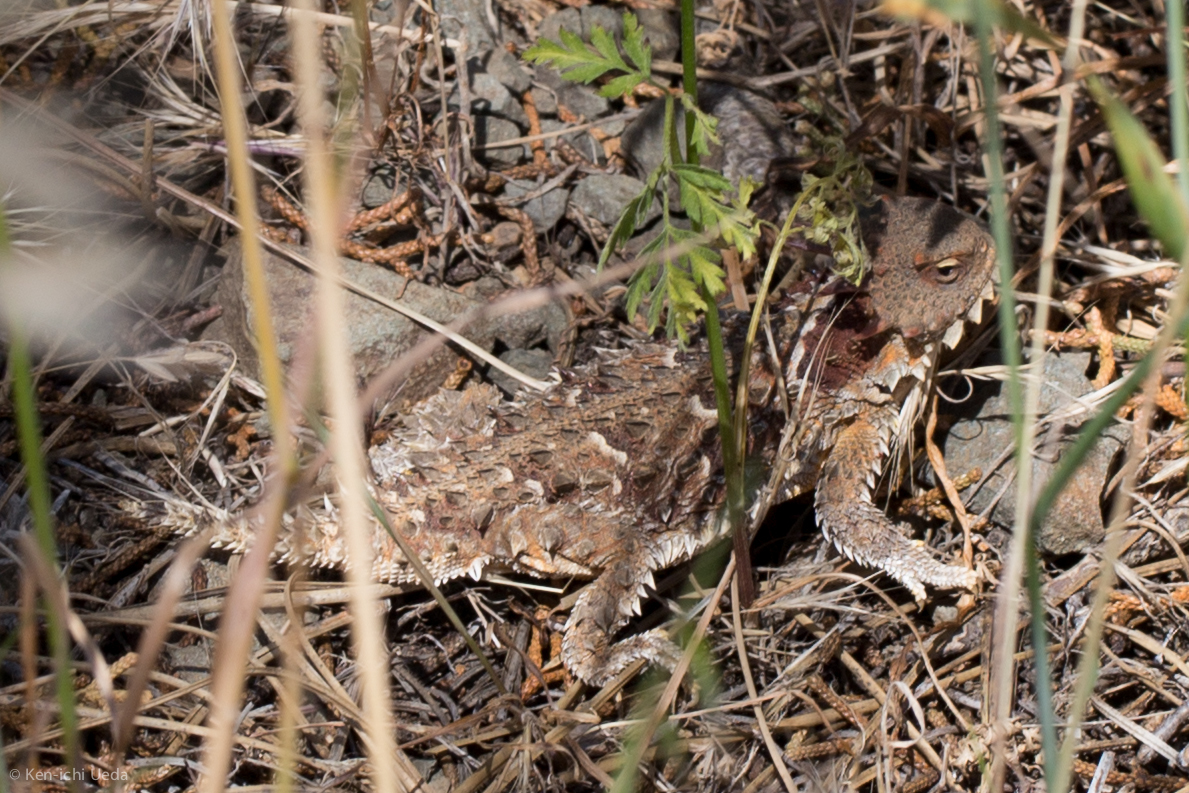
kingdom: Animalia
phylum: Chordata
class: Squamata
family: Phrynosomatidae
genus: Phrynosoma
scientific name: Phrynosoma blainvillii
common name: San diego horned lizard
